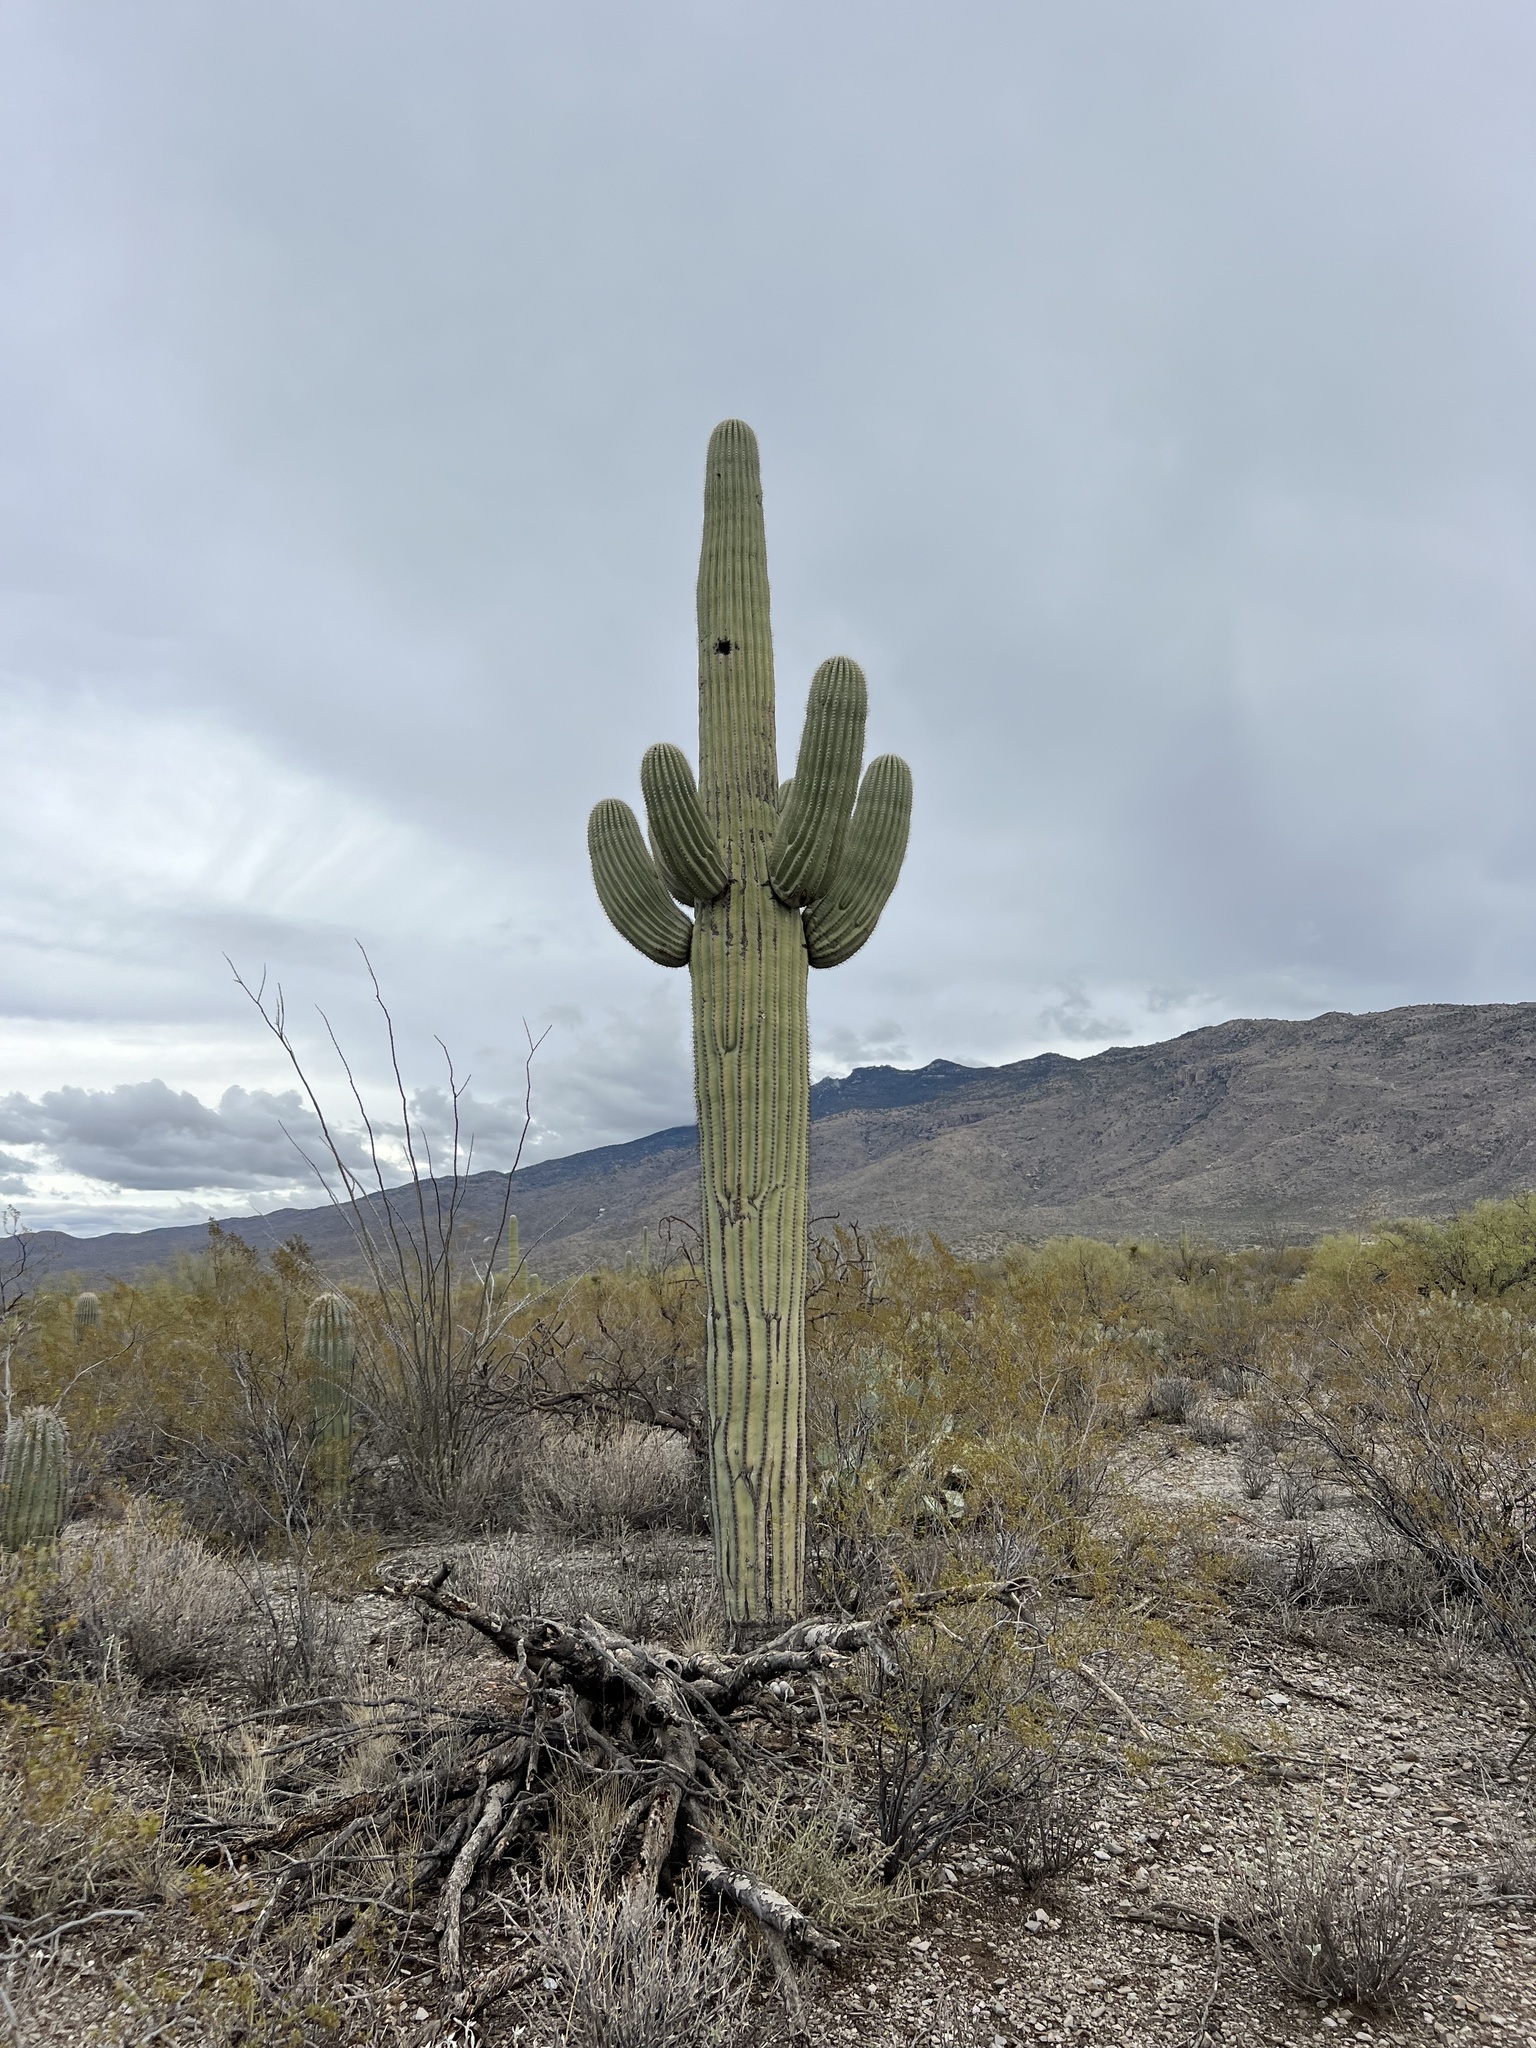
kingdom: Plantae
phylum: Tracheophyta
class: Magnoliopsida
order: Caryophyllales
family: Cactaceae
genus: Carnegiea
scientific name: Carnegiea gigantea
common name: Saguaro
